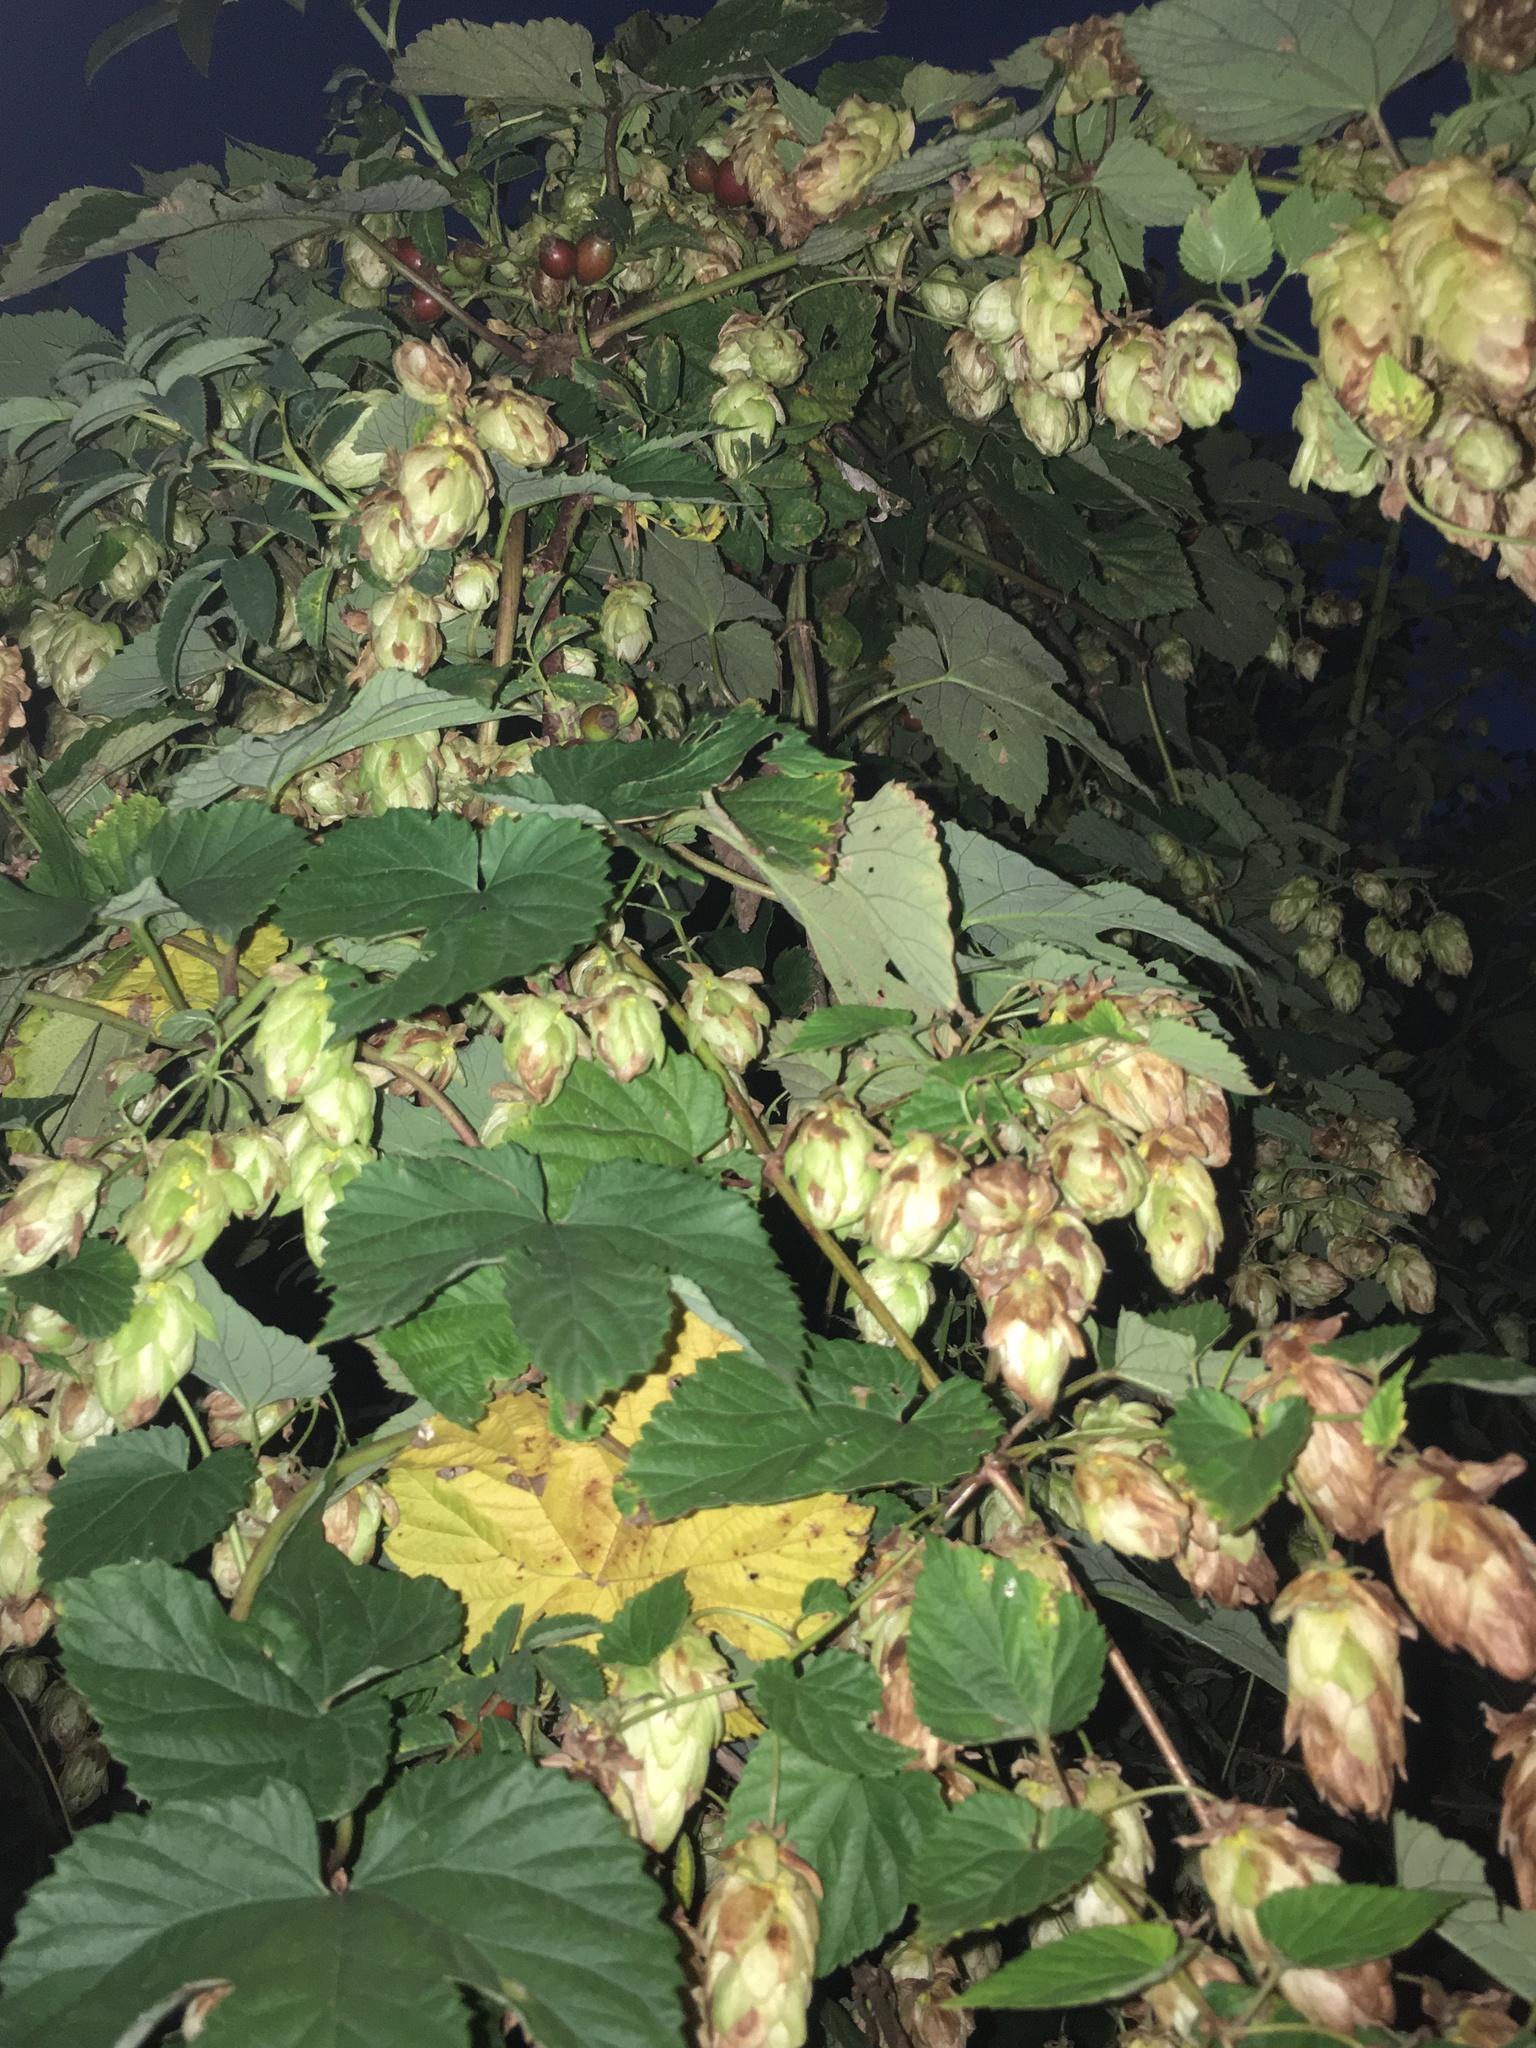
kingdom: Plantae
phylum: Tracheophyta
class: Magnoliopsida
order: Rosales
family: Cannabaceae
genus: Humulus
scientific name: Humulus lupulus
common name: Hop
